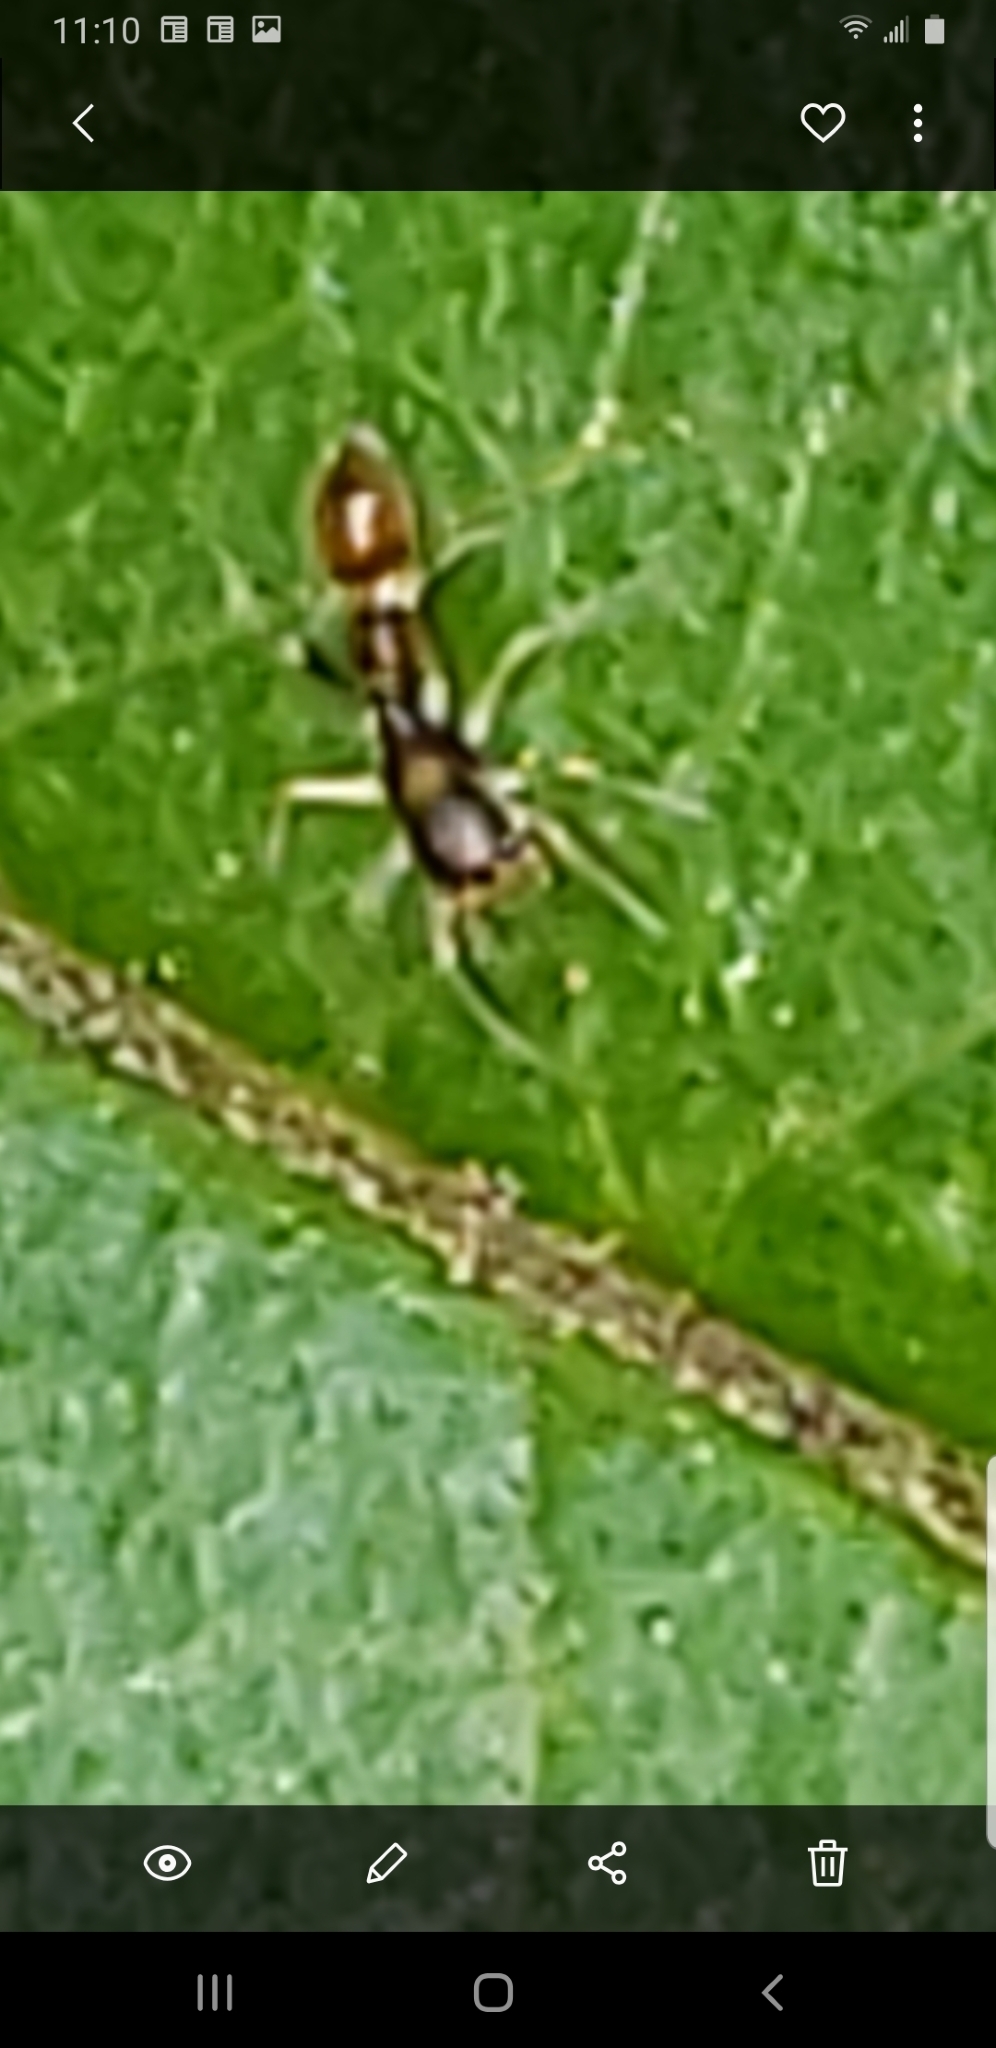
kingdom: Animalia
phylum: Arthropoda
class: Arachnida
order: Araneae
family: Salticidae
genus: Synemosyna
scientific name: Synemosyna formica
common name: Slender ant-mimic jumping spider
